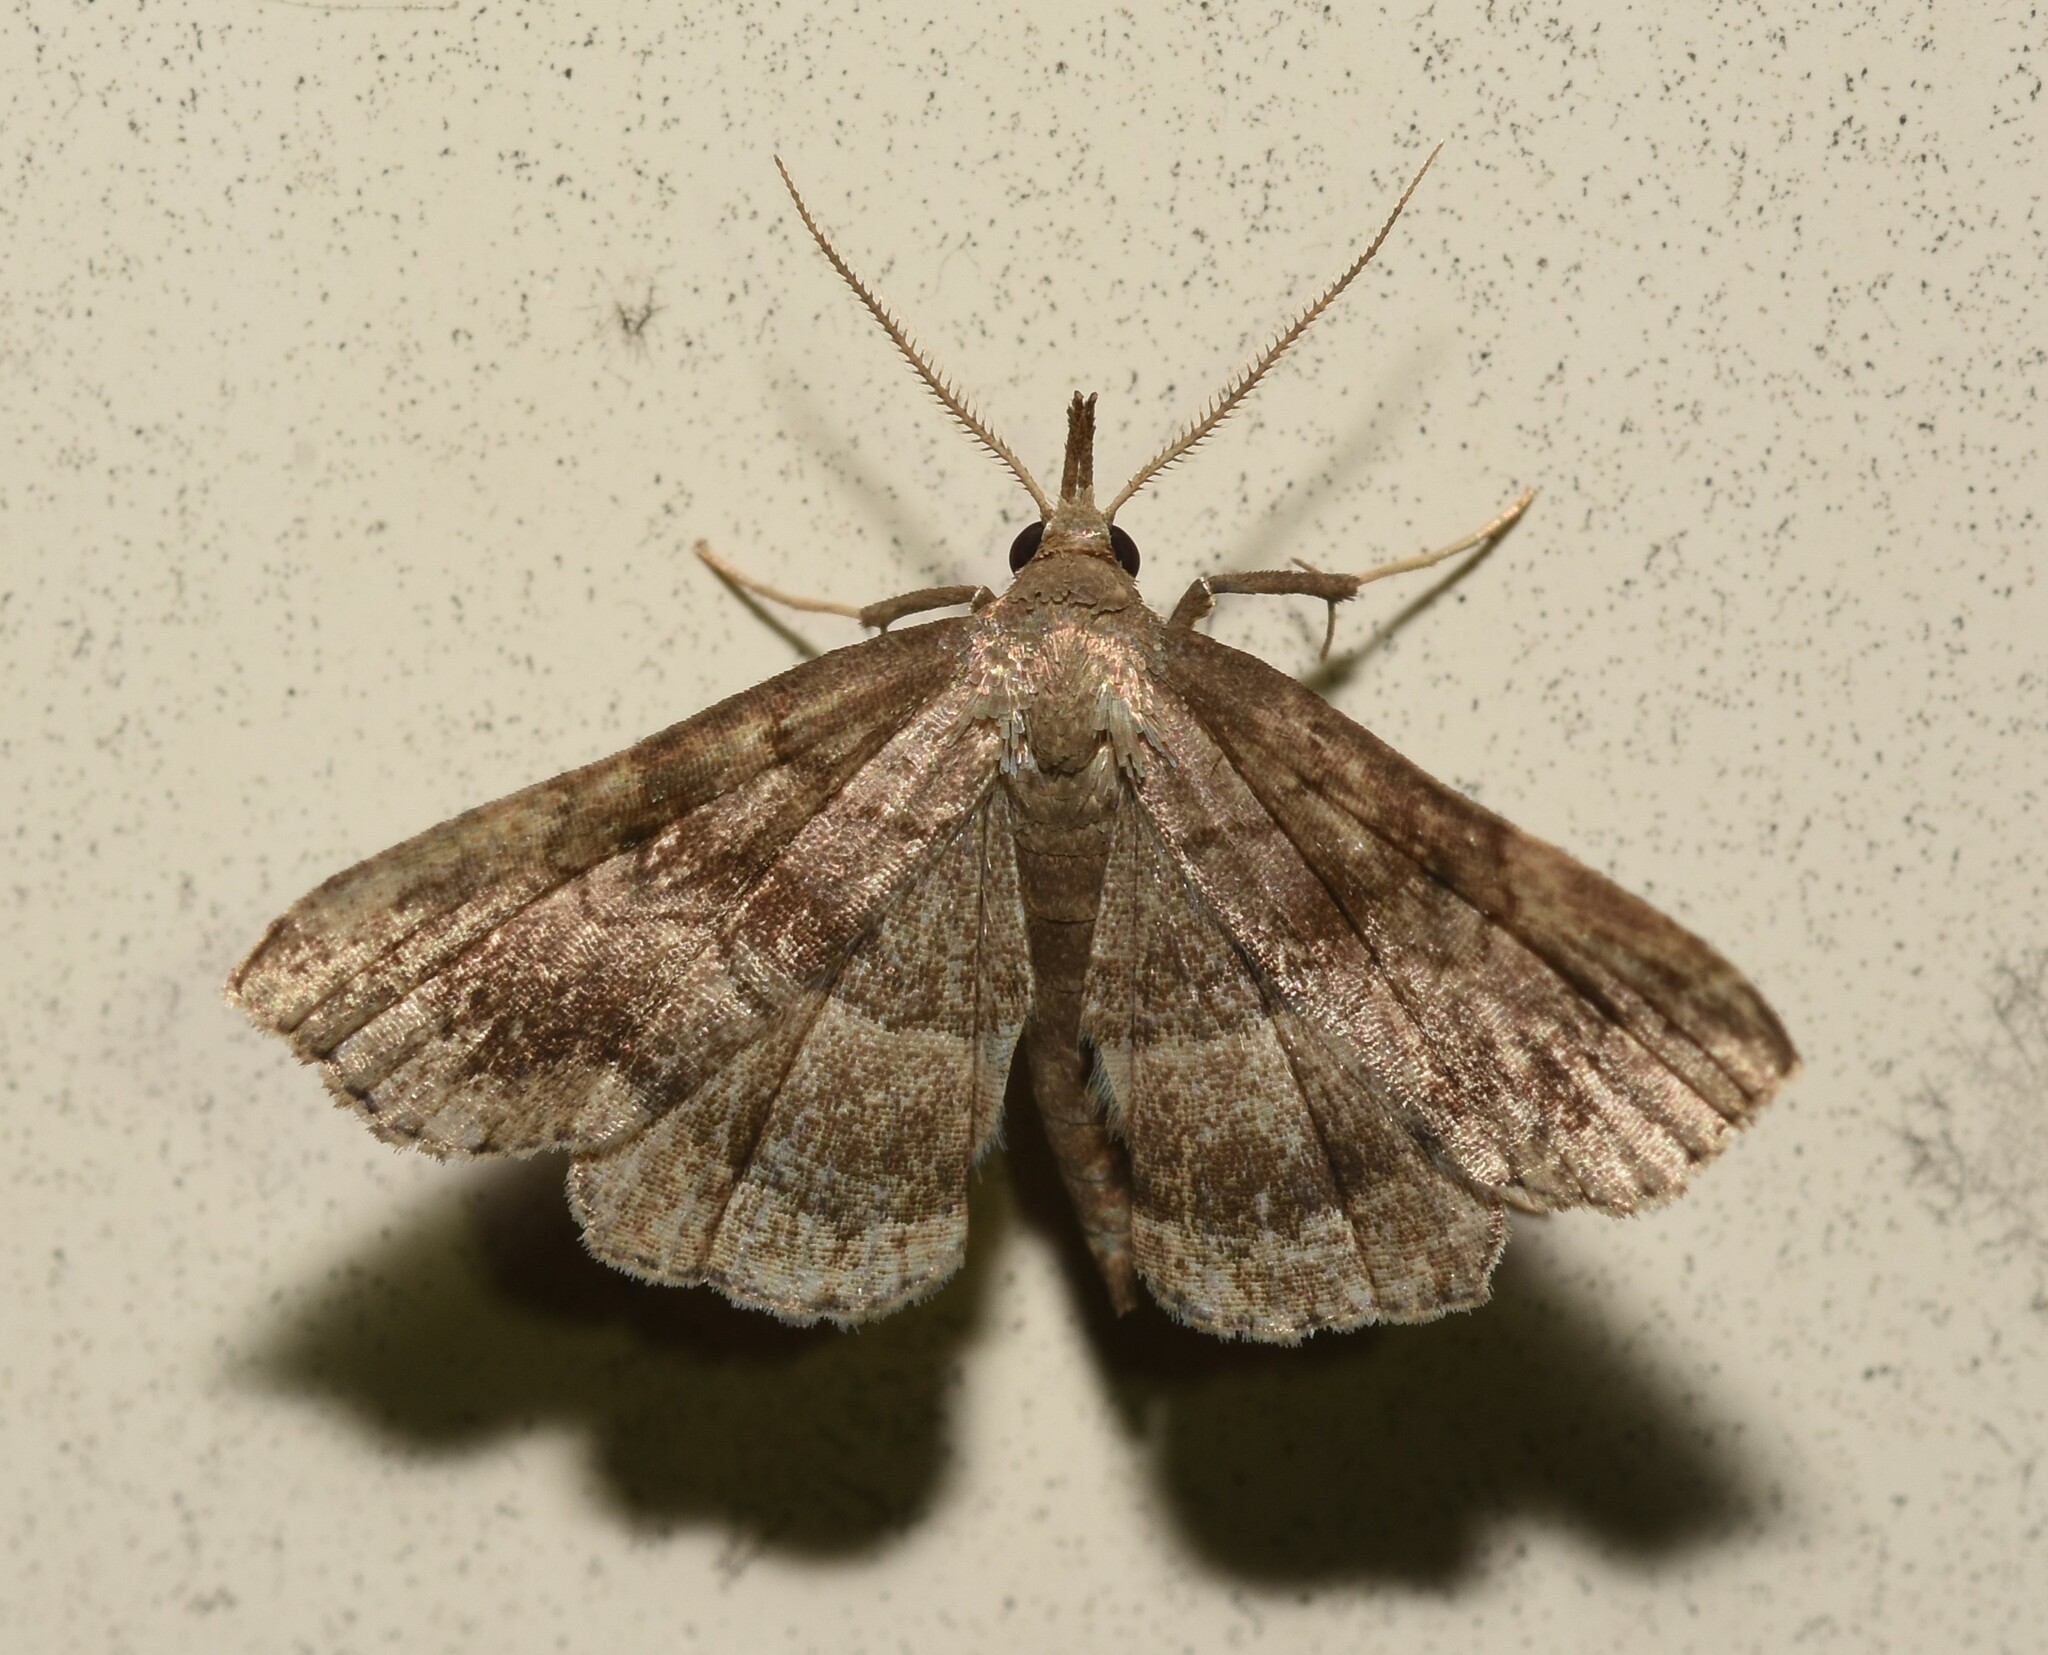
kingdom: Animalia
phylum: Arthropoda
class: Insecta
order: Lepidoptera
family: Erebidae
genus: Phalaenostola
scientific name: Phalaenostola larentioides
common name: Black-banded owlet
